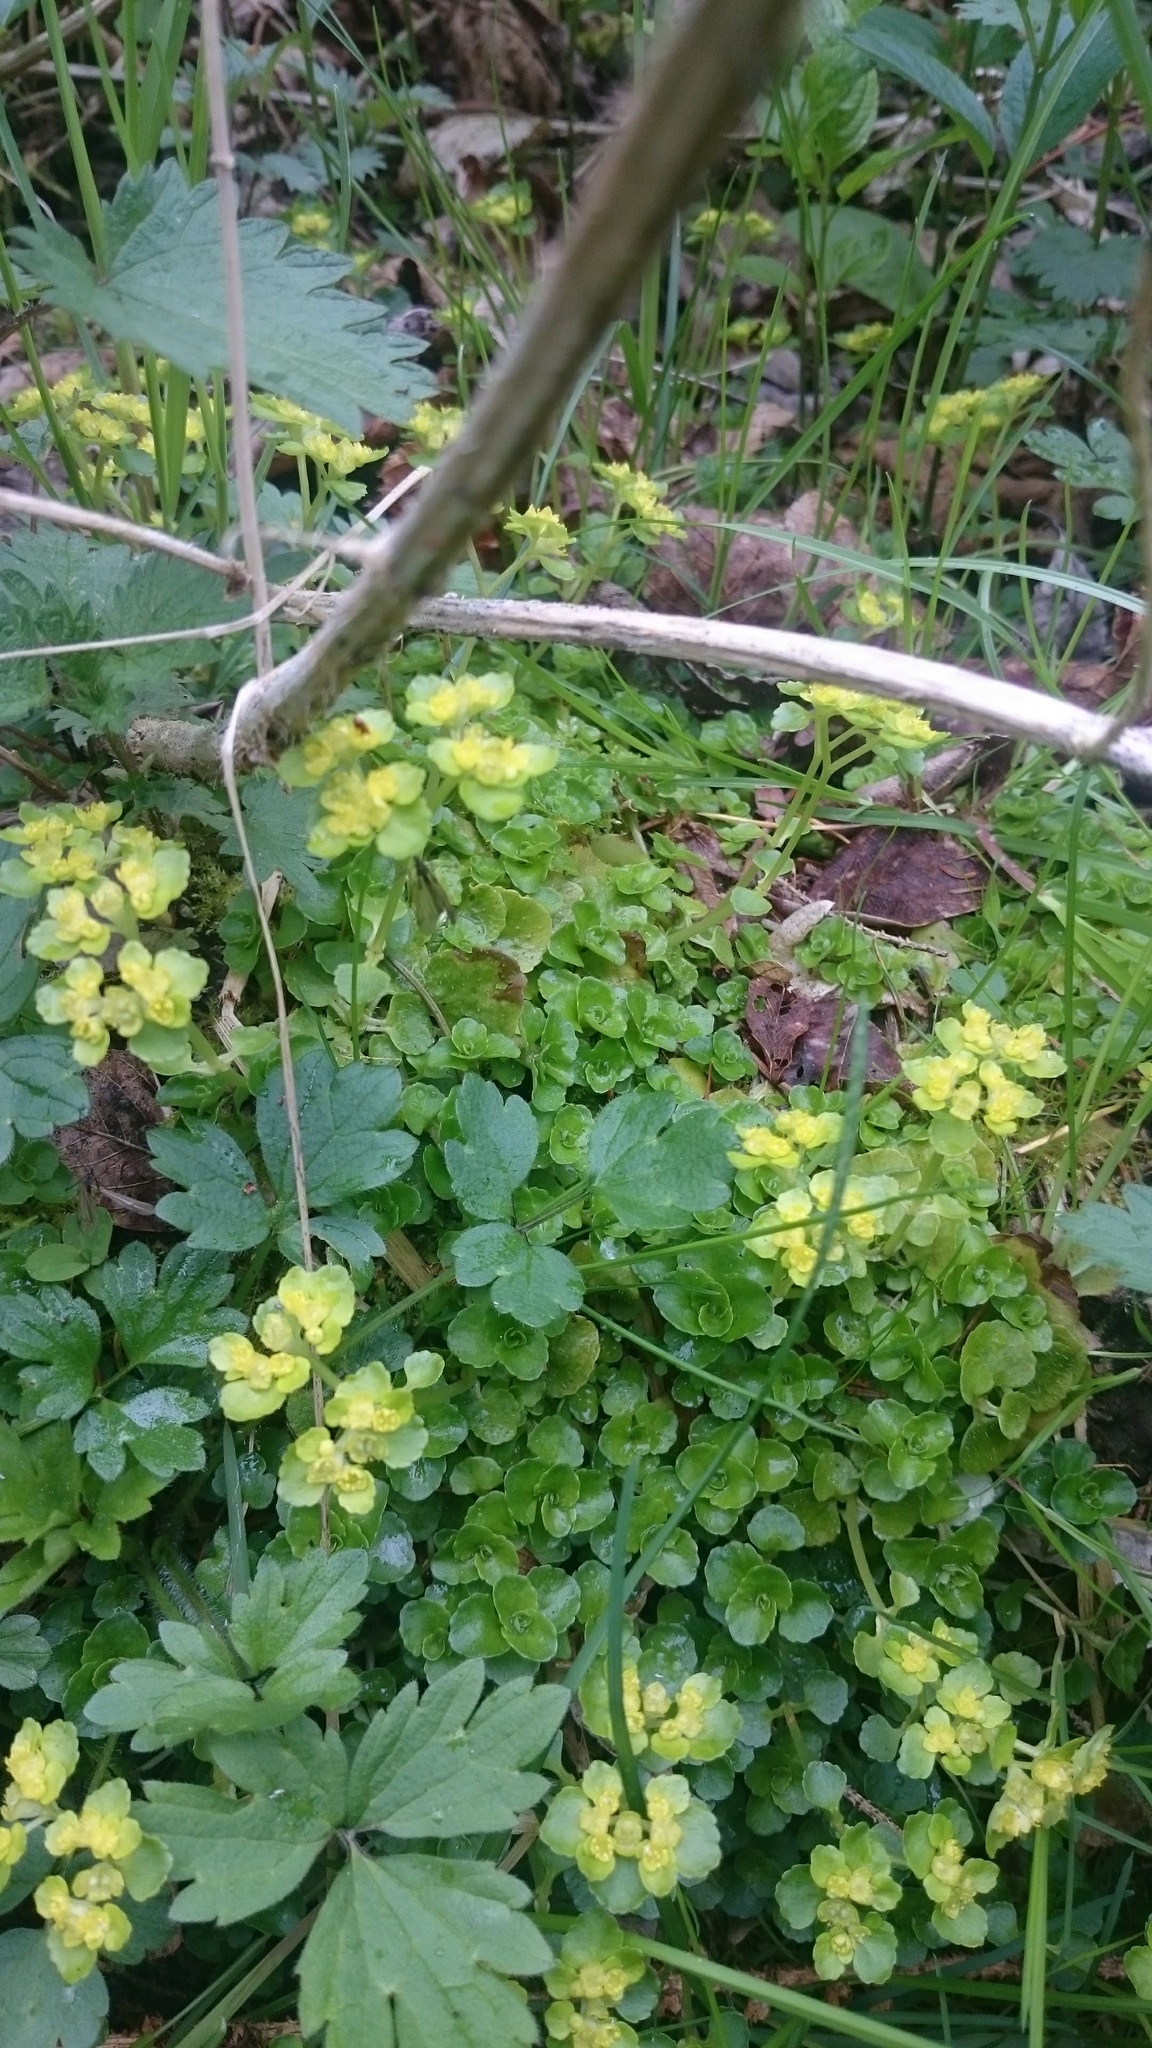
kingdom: Plantae
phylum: Tracheophyta
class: Magnoliopsida
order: Saxifragales
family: Saxifragaceae
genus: Chrysosplenium
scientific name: Chrysosplenium alternifolium
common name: Alternate-leaved golden-saxifrage
